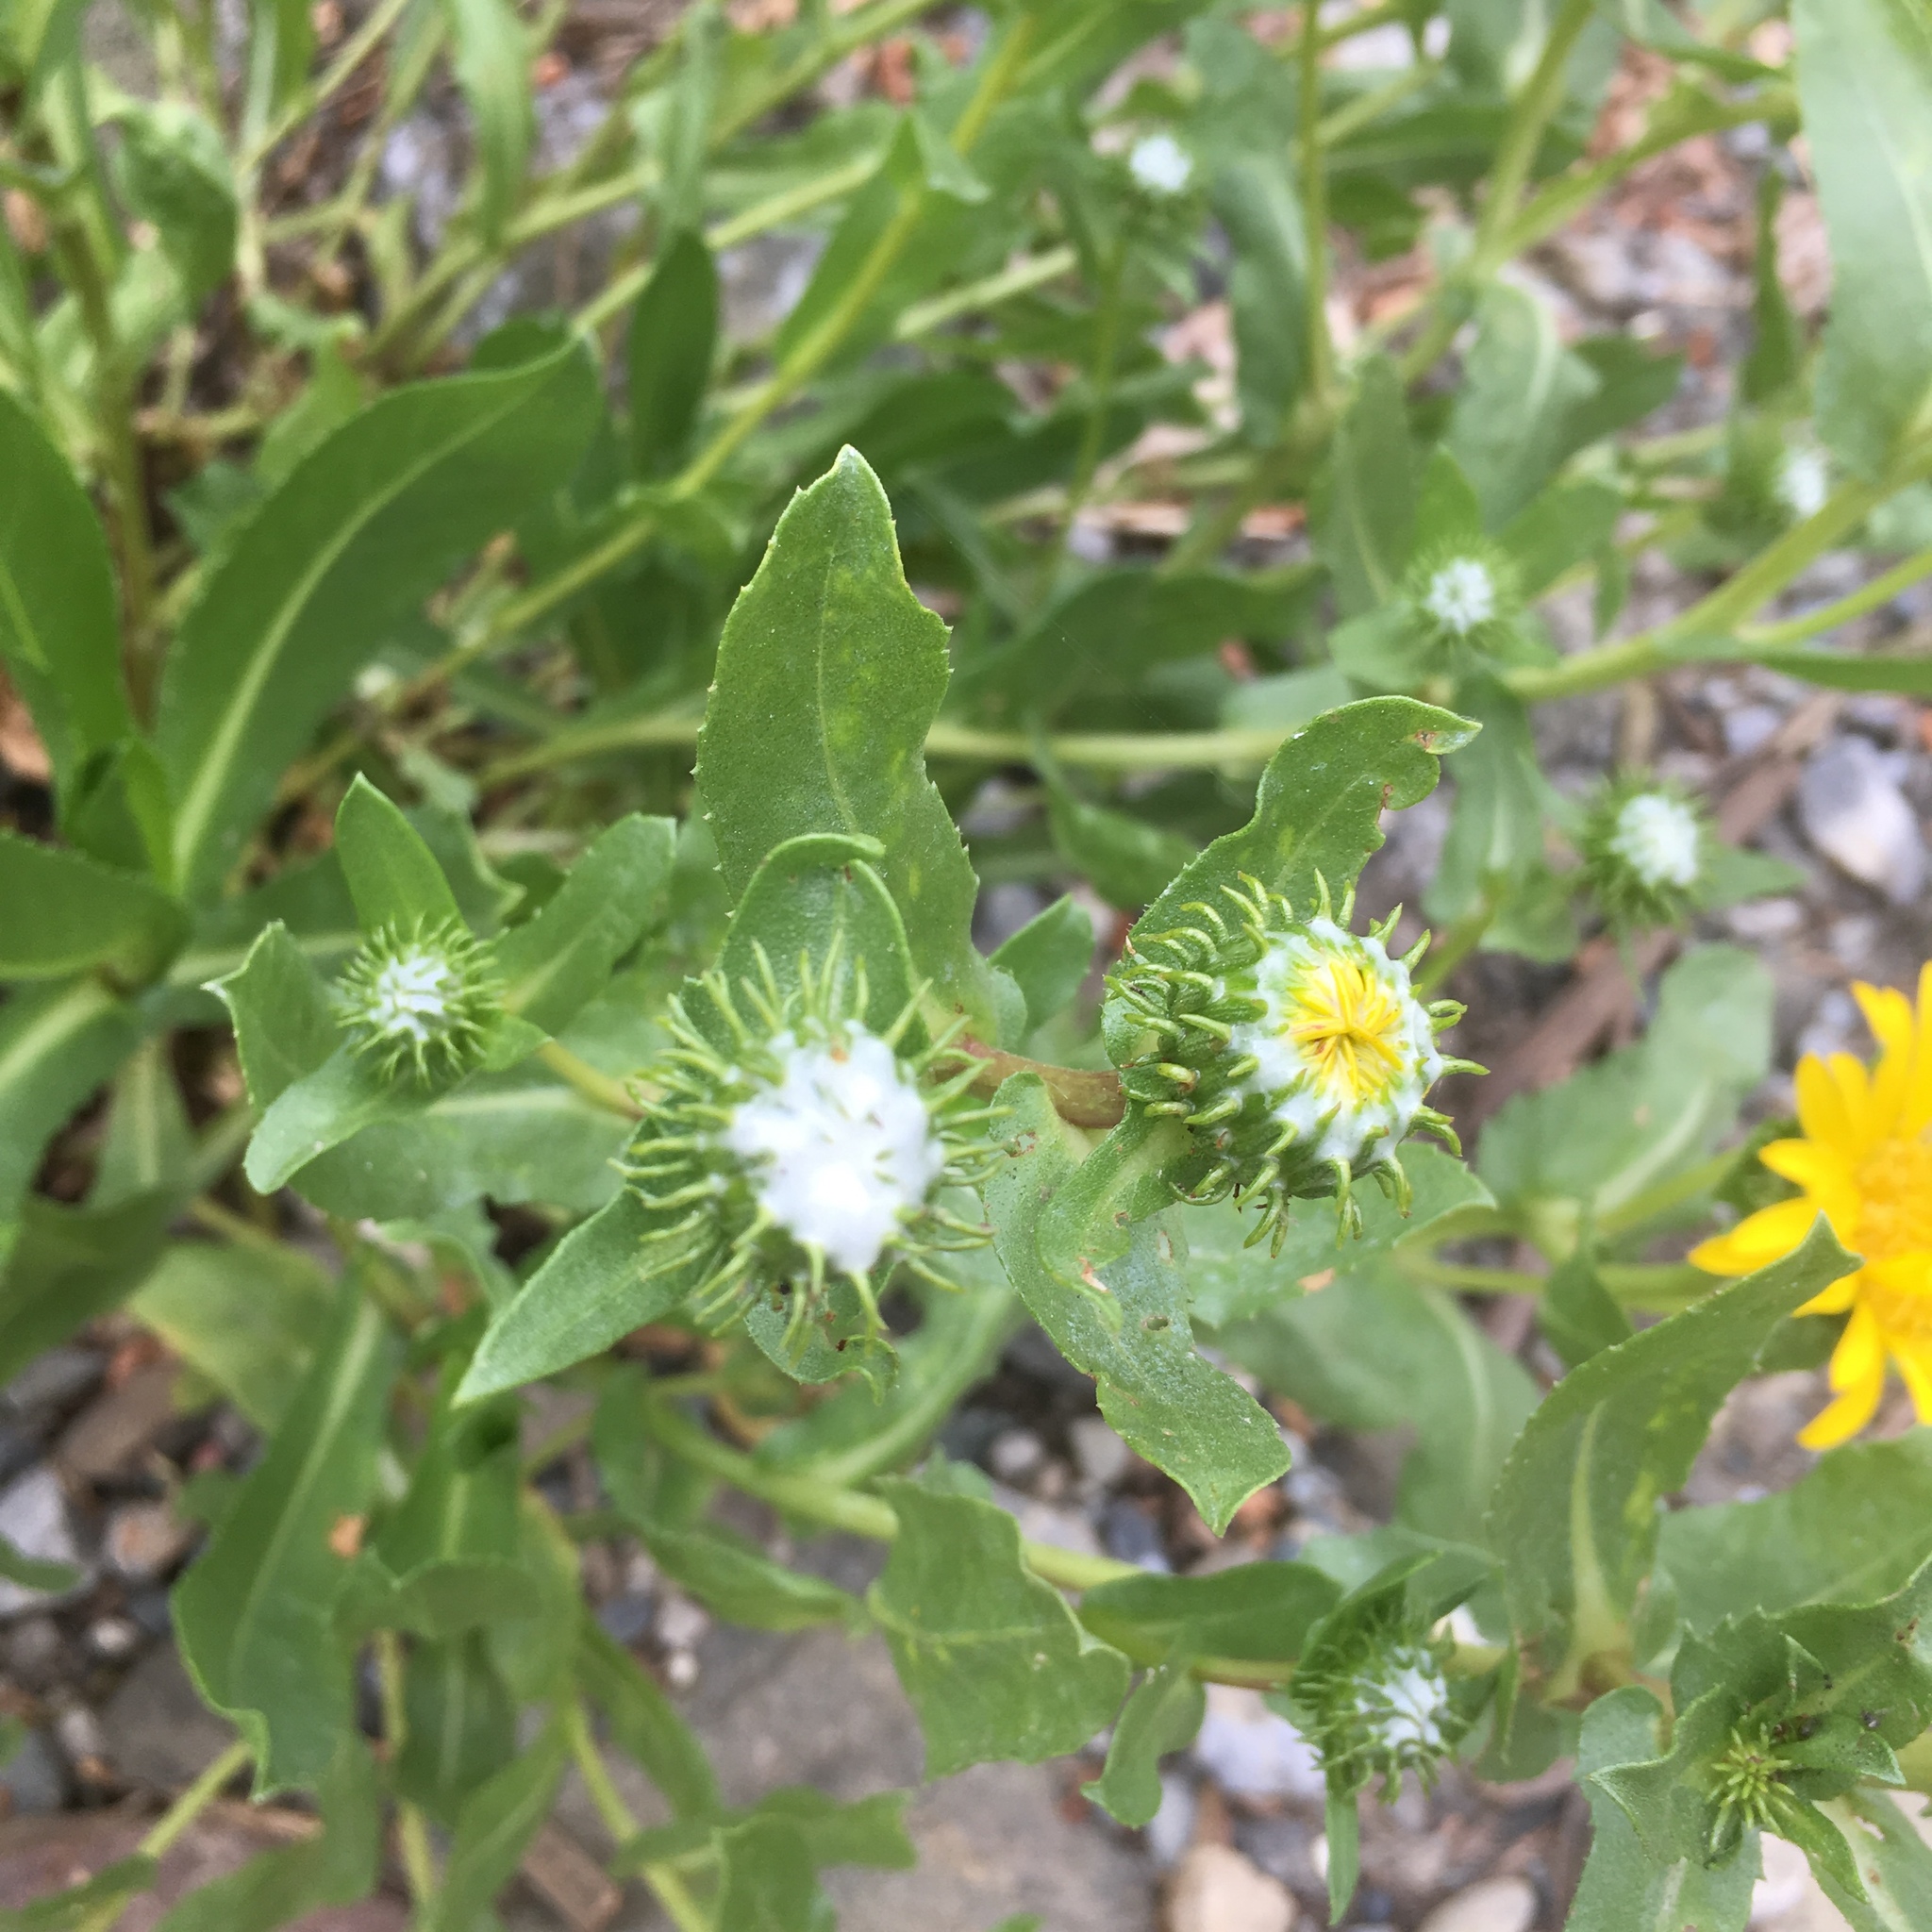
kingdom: Plantae
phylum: Tracheophyta
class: Magnoliopsida
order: Asterales
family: Asteraceae
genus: Grindelia
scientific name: Grindelia integrifolia
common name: Puget sound gumweed
